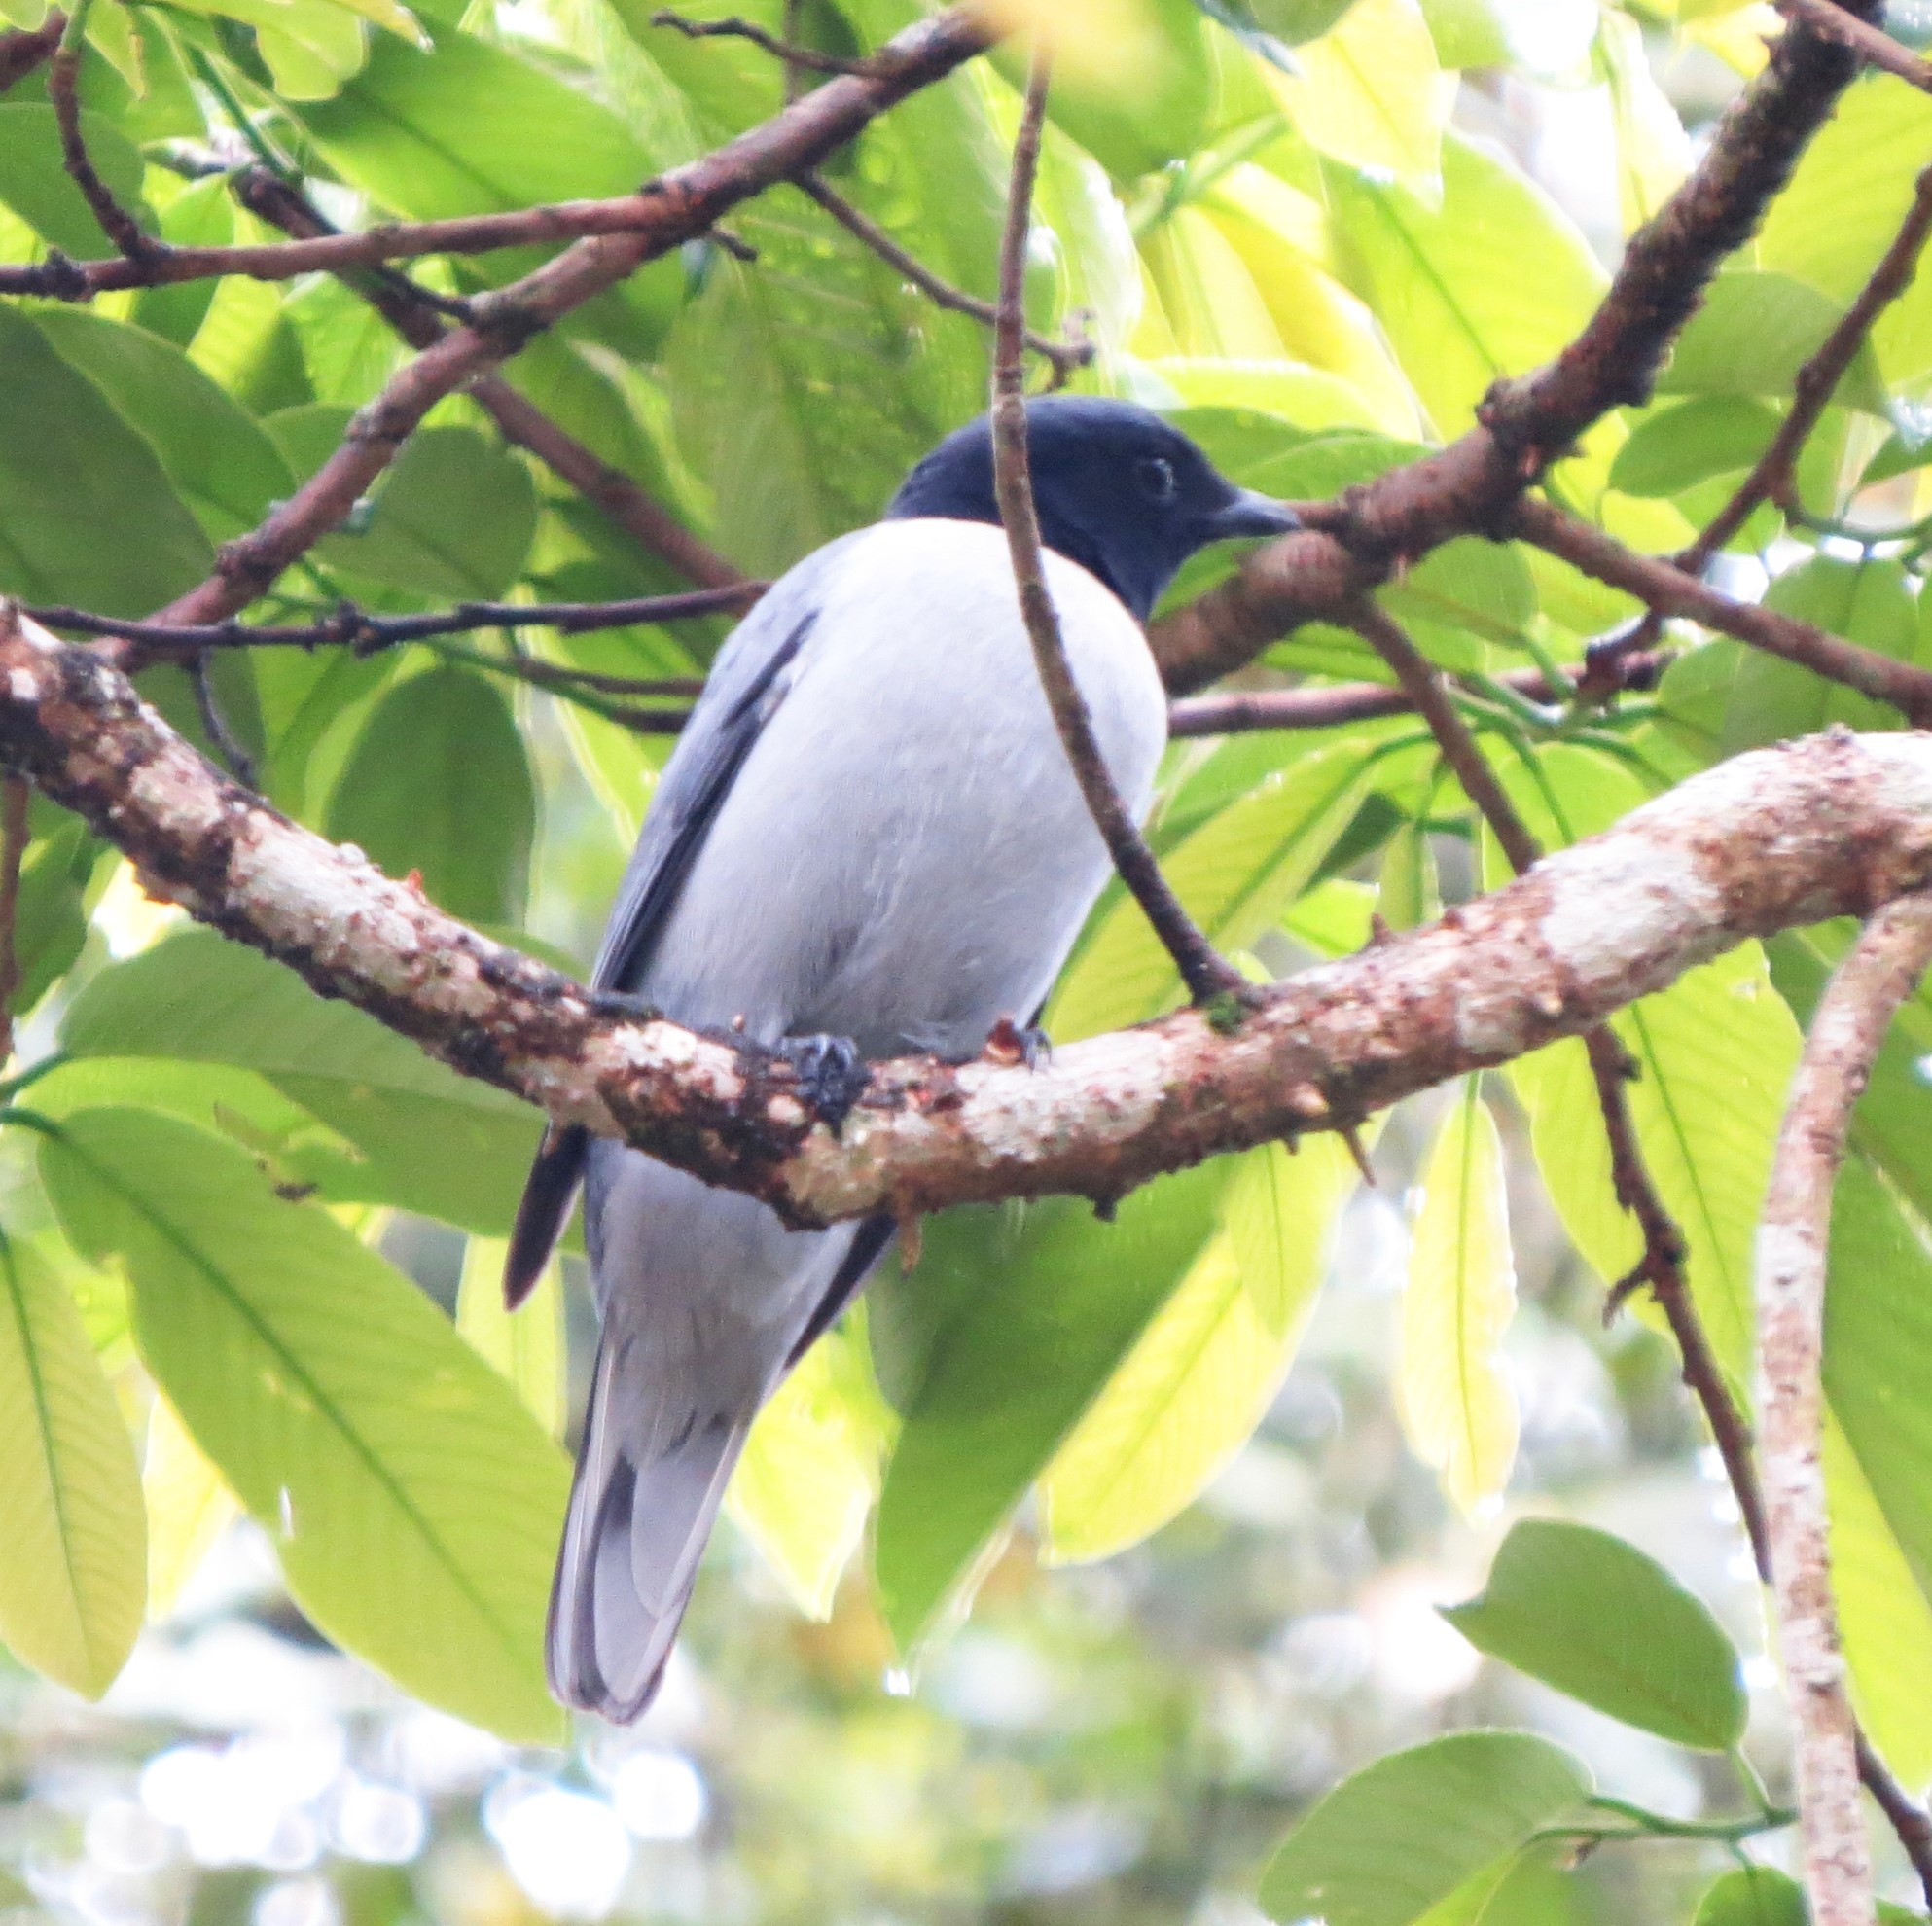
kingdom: Animalia
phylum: Chordata
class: Aves
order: Passeriformes
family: Campephagidae
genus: Coracina
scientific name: Coracina cinerea
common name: Madagascan cuckooshrike
